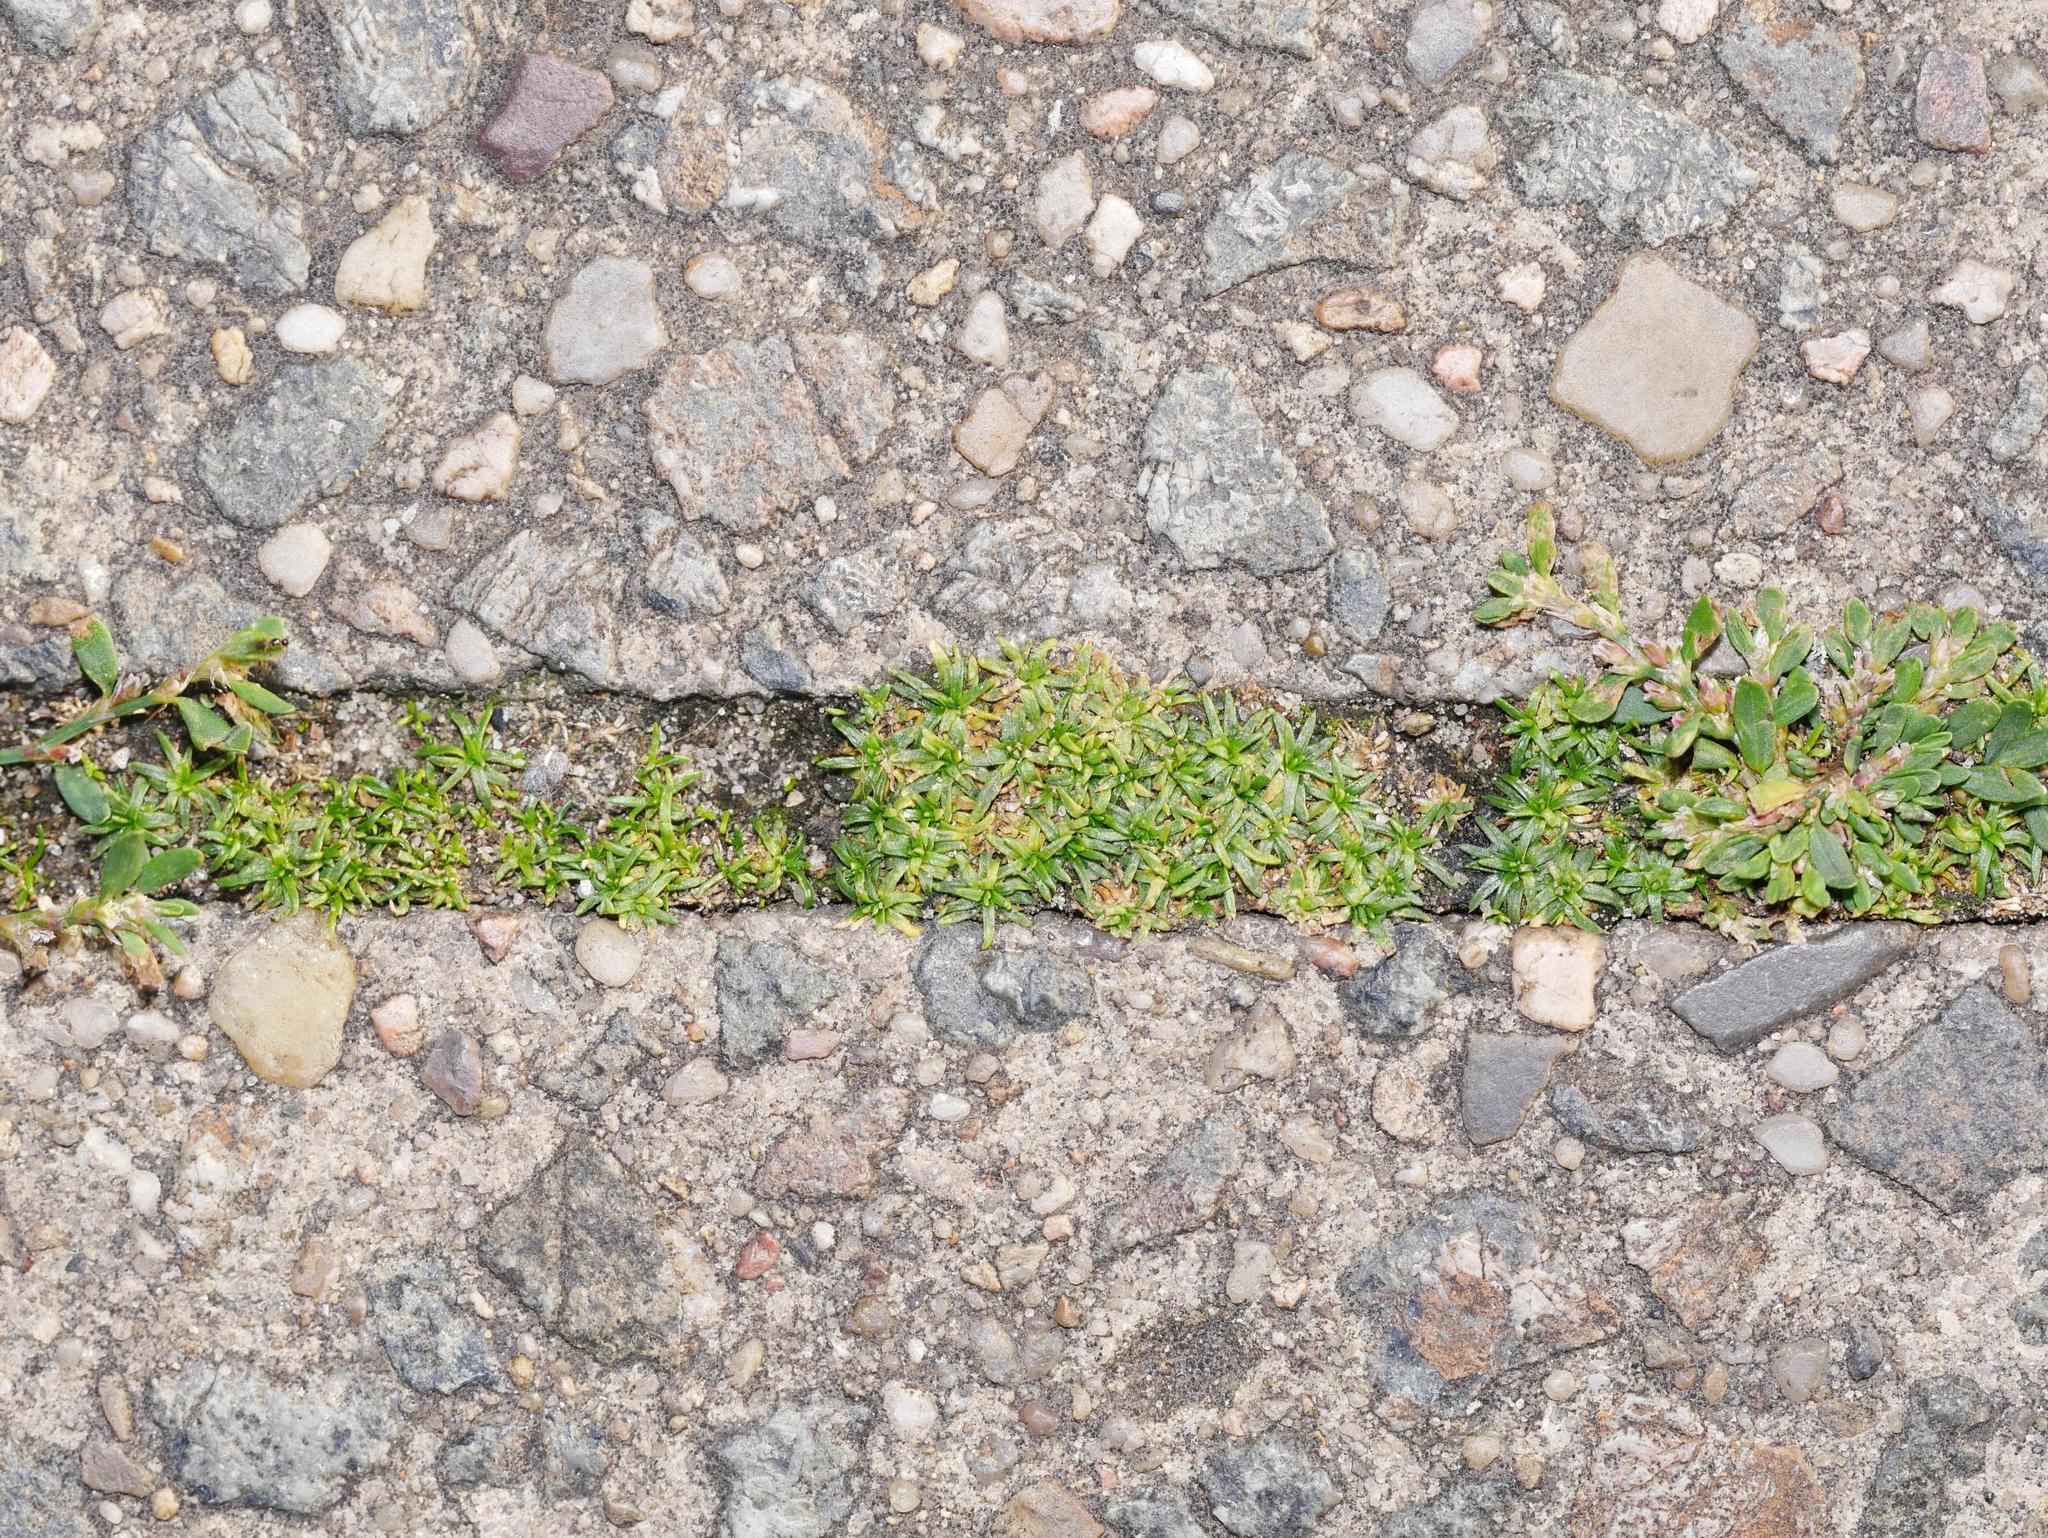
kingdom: Plantae
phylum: Tracheophyta
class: Magnoliopsida
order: Caryophyllales
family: Caryophyllaceae
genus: Sagina
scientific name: Sagina procumbens
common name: Procumbent pearlwort
